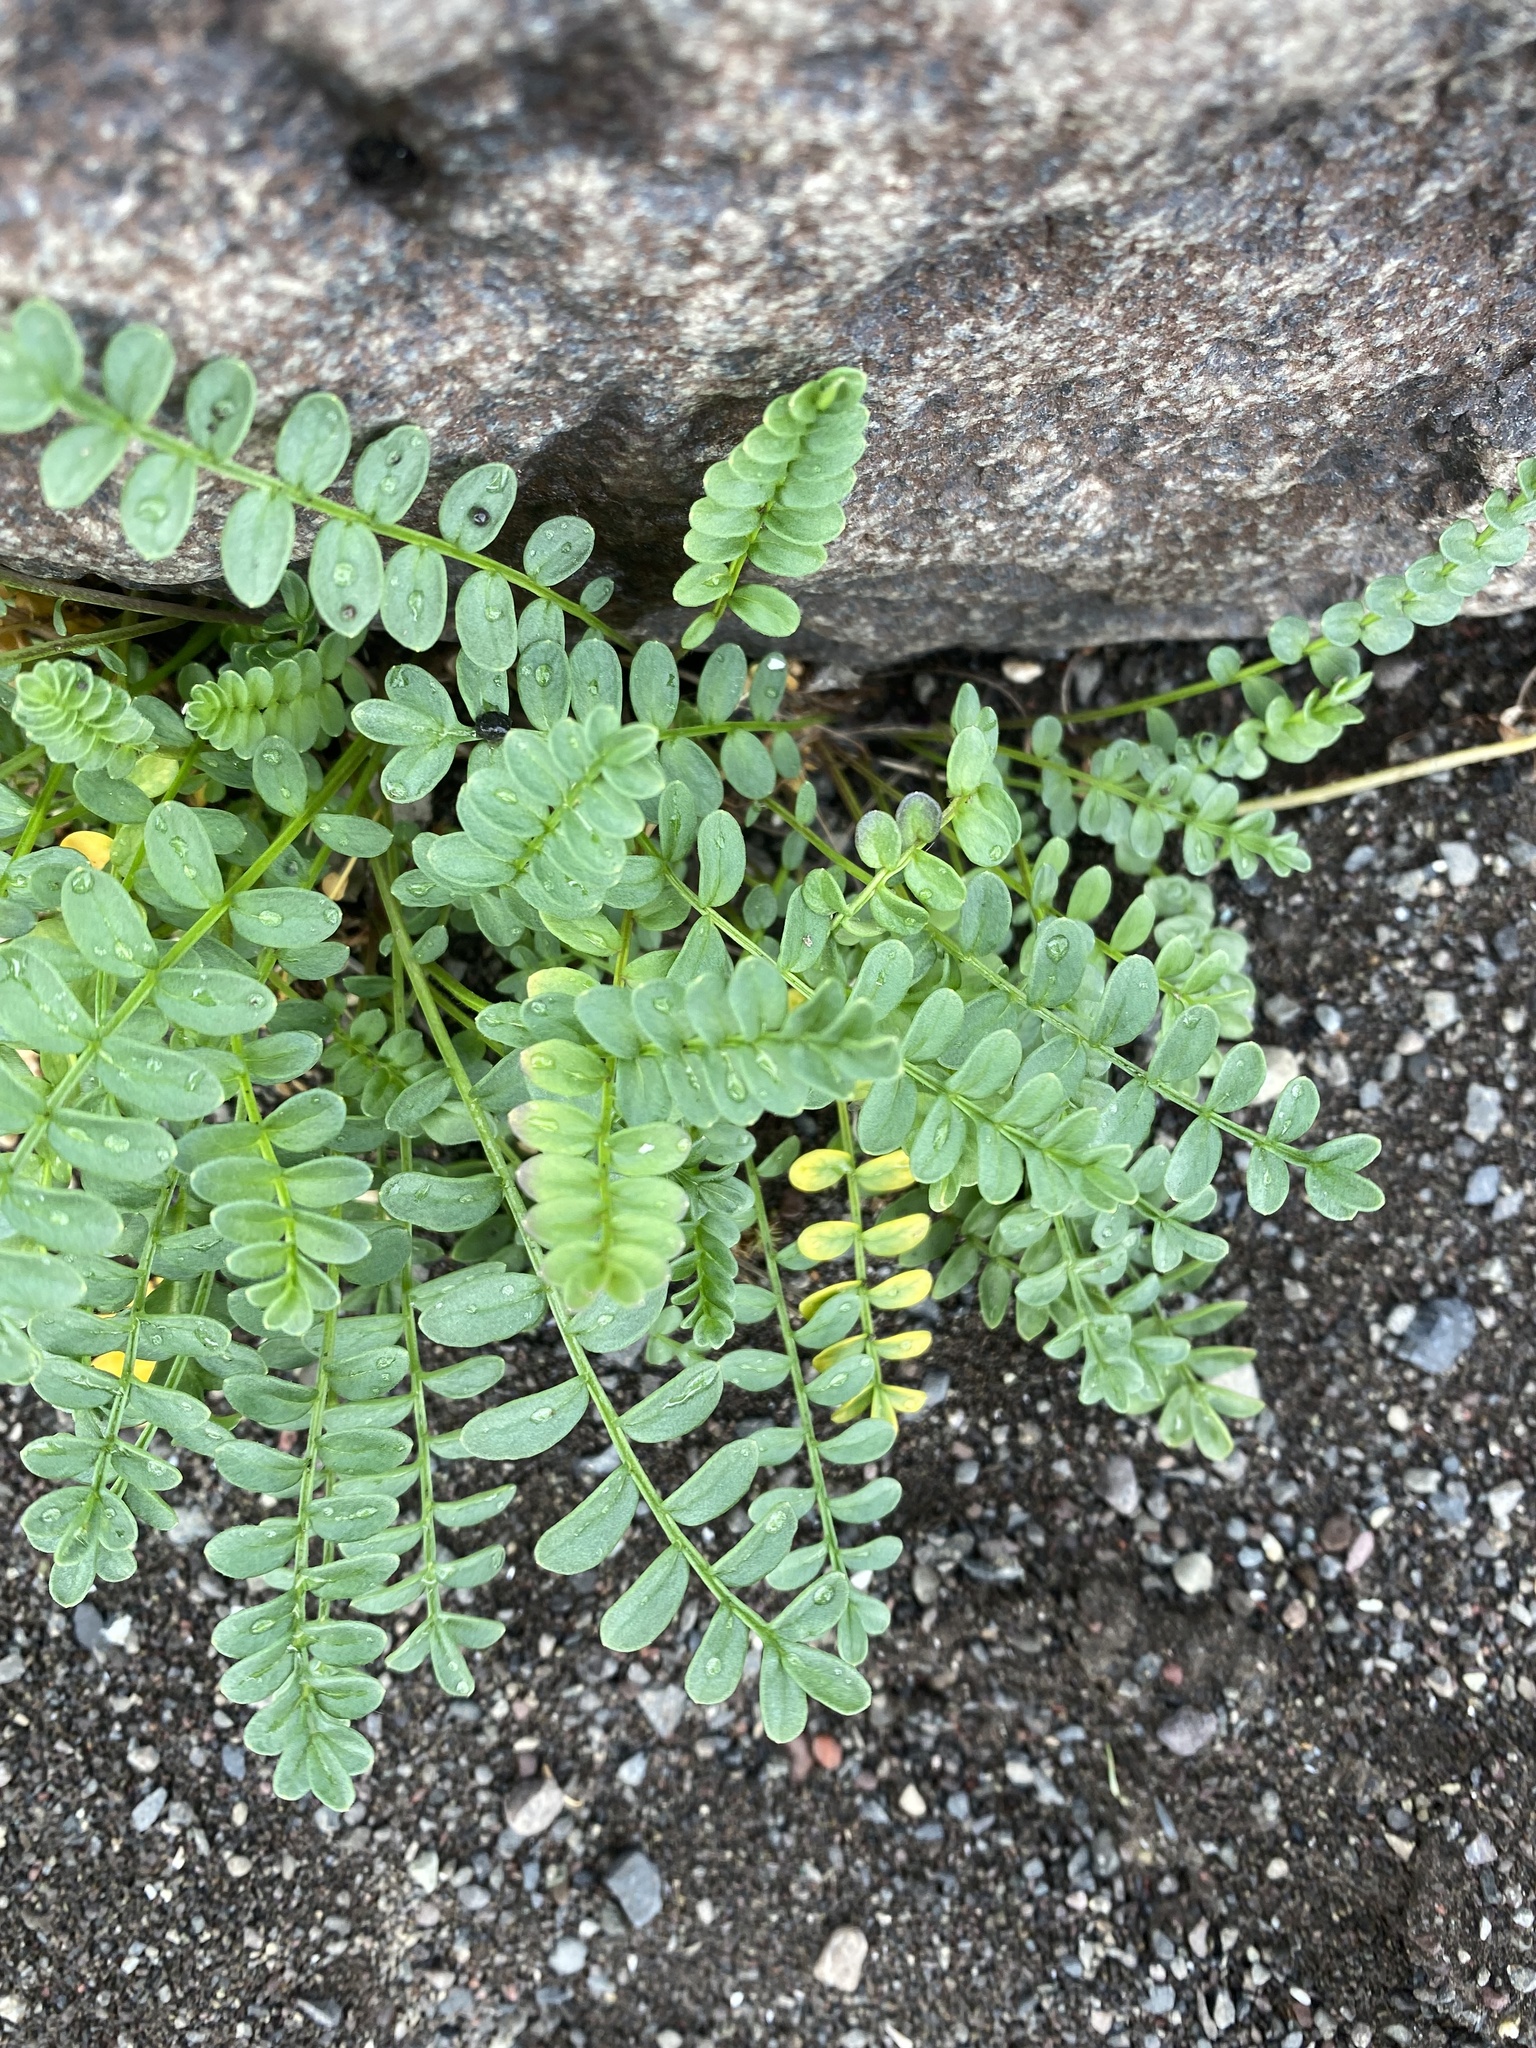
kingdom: Plantae
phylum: Tracheophyta
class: Magnoliopsida
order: Ericales
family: Polemoniaceae
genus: Polemonium
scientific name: Polemonium boreale
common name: Boreal jacob's-ladder
